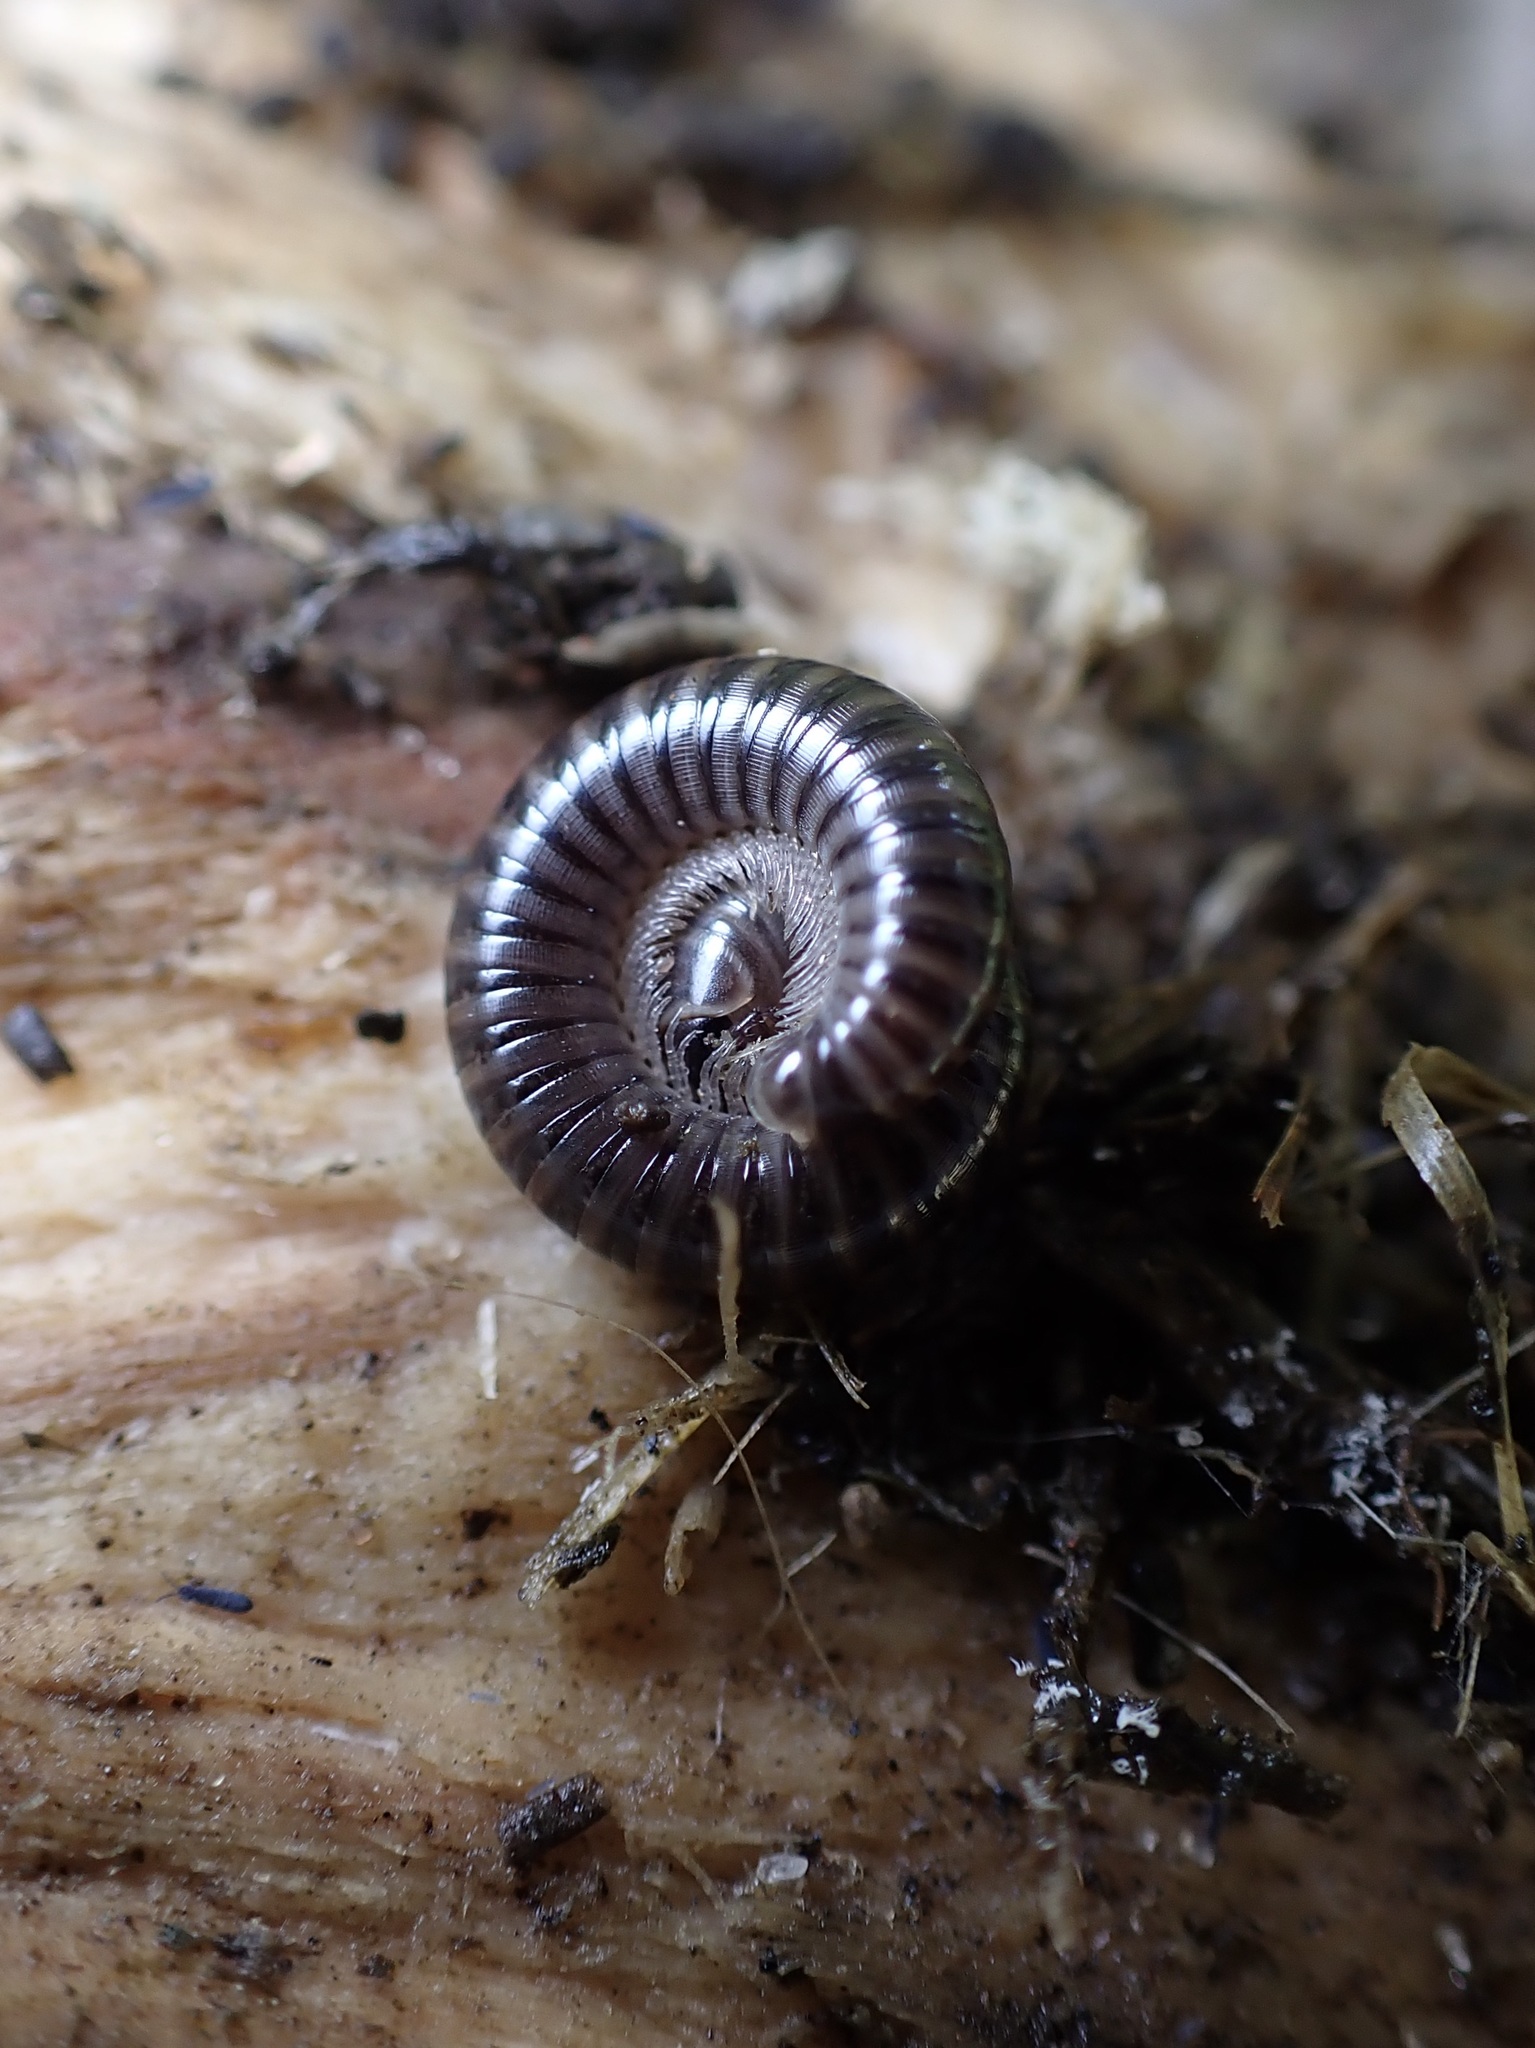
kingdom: Animalia
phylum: Arthropoda
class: Diplopoda
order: Julida
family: Julidae
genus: Cylindroiulus
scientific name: Cylindroiulus caeruleocinctus
